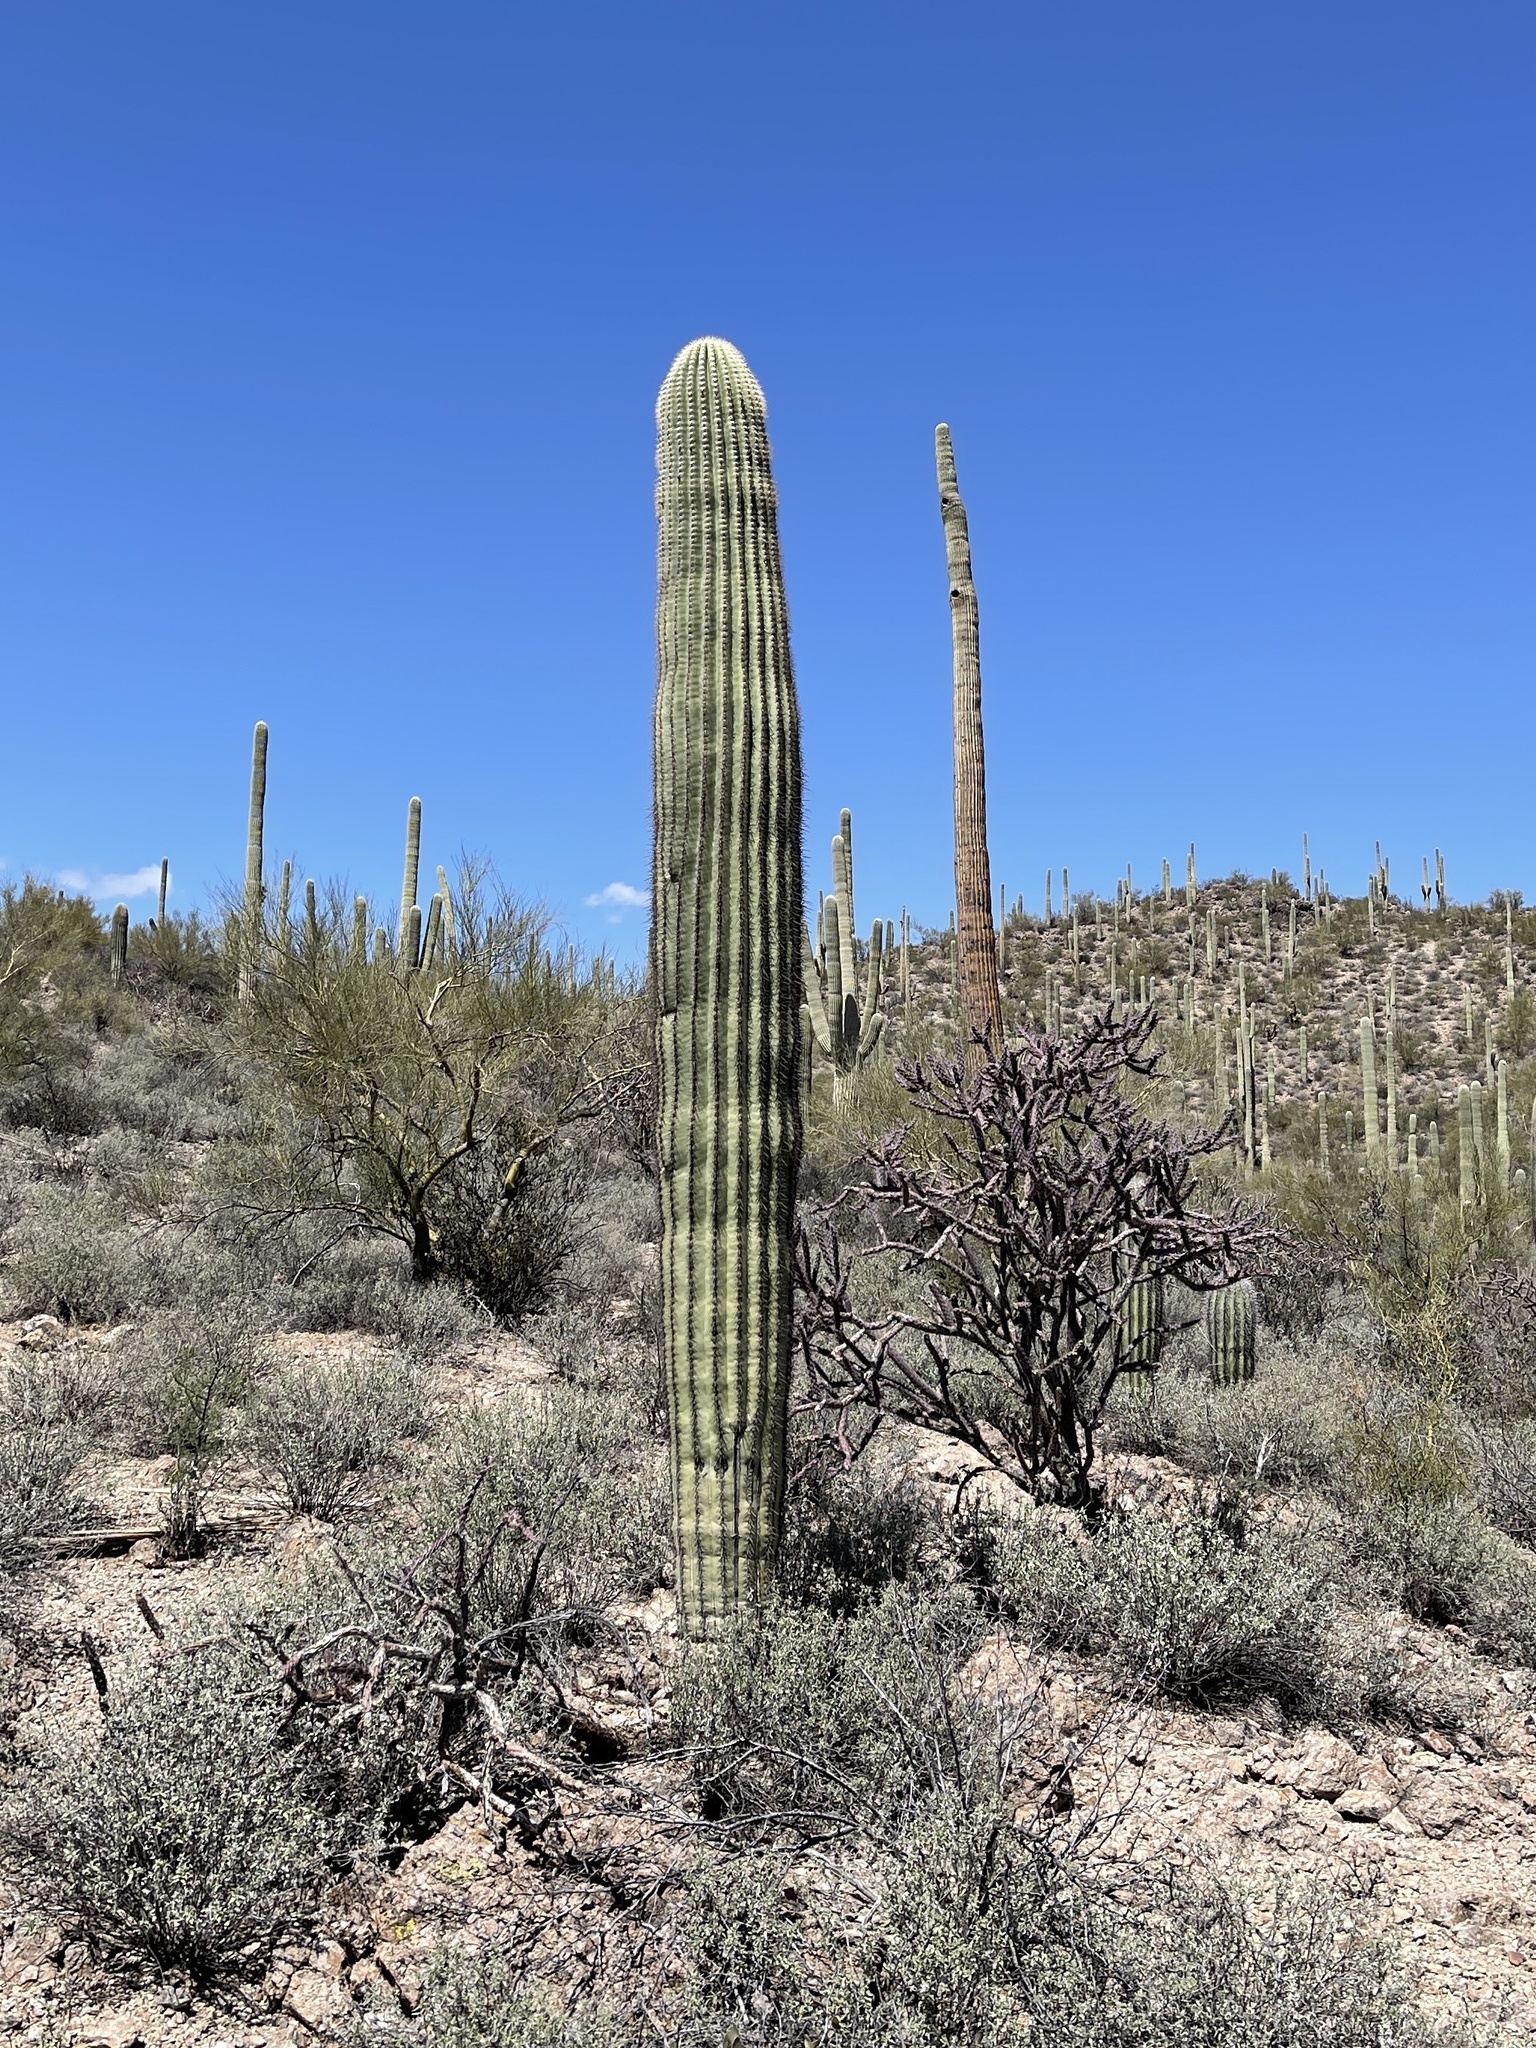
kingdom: Plantae
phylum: Tracheophyta
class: Magnoliopsida
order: Caryophyllales
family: Cactaceae
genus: Carnegiea
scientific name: Carnegiea gigantea
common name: Saguaro
